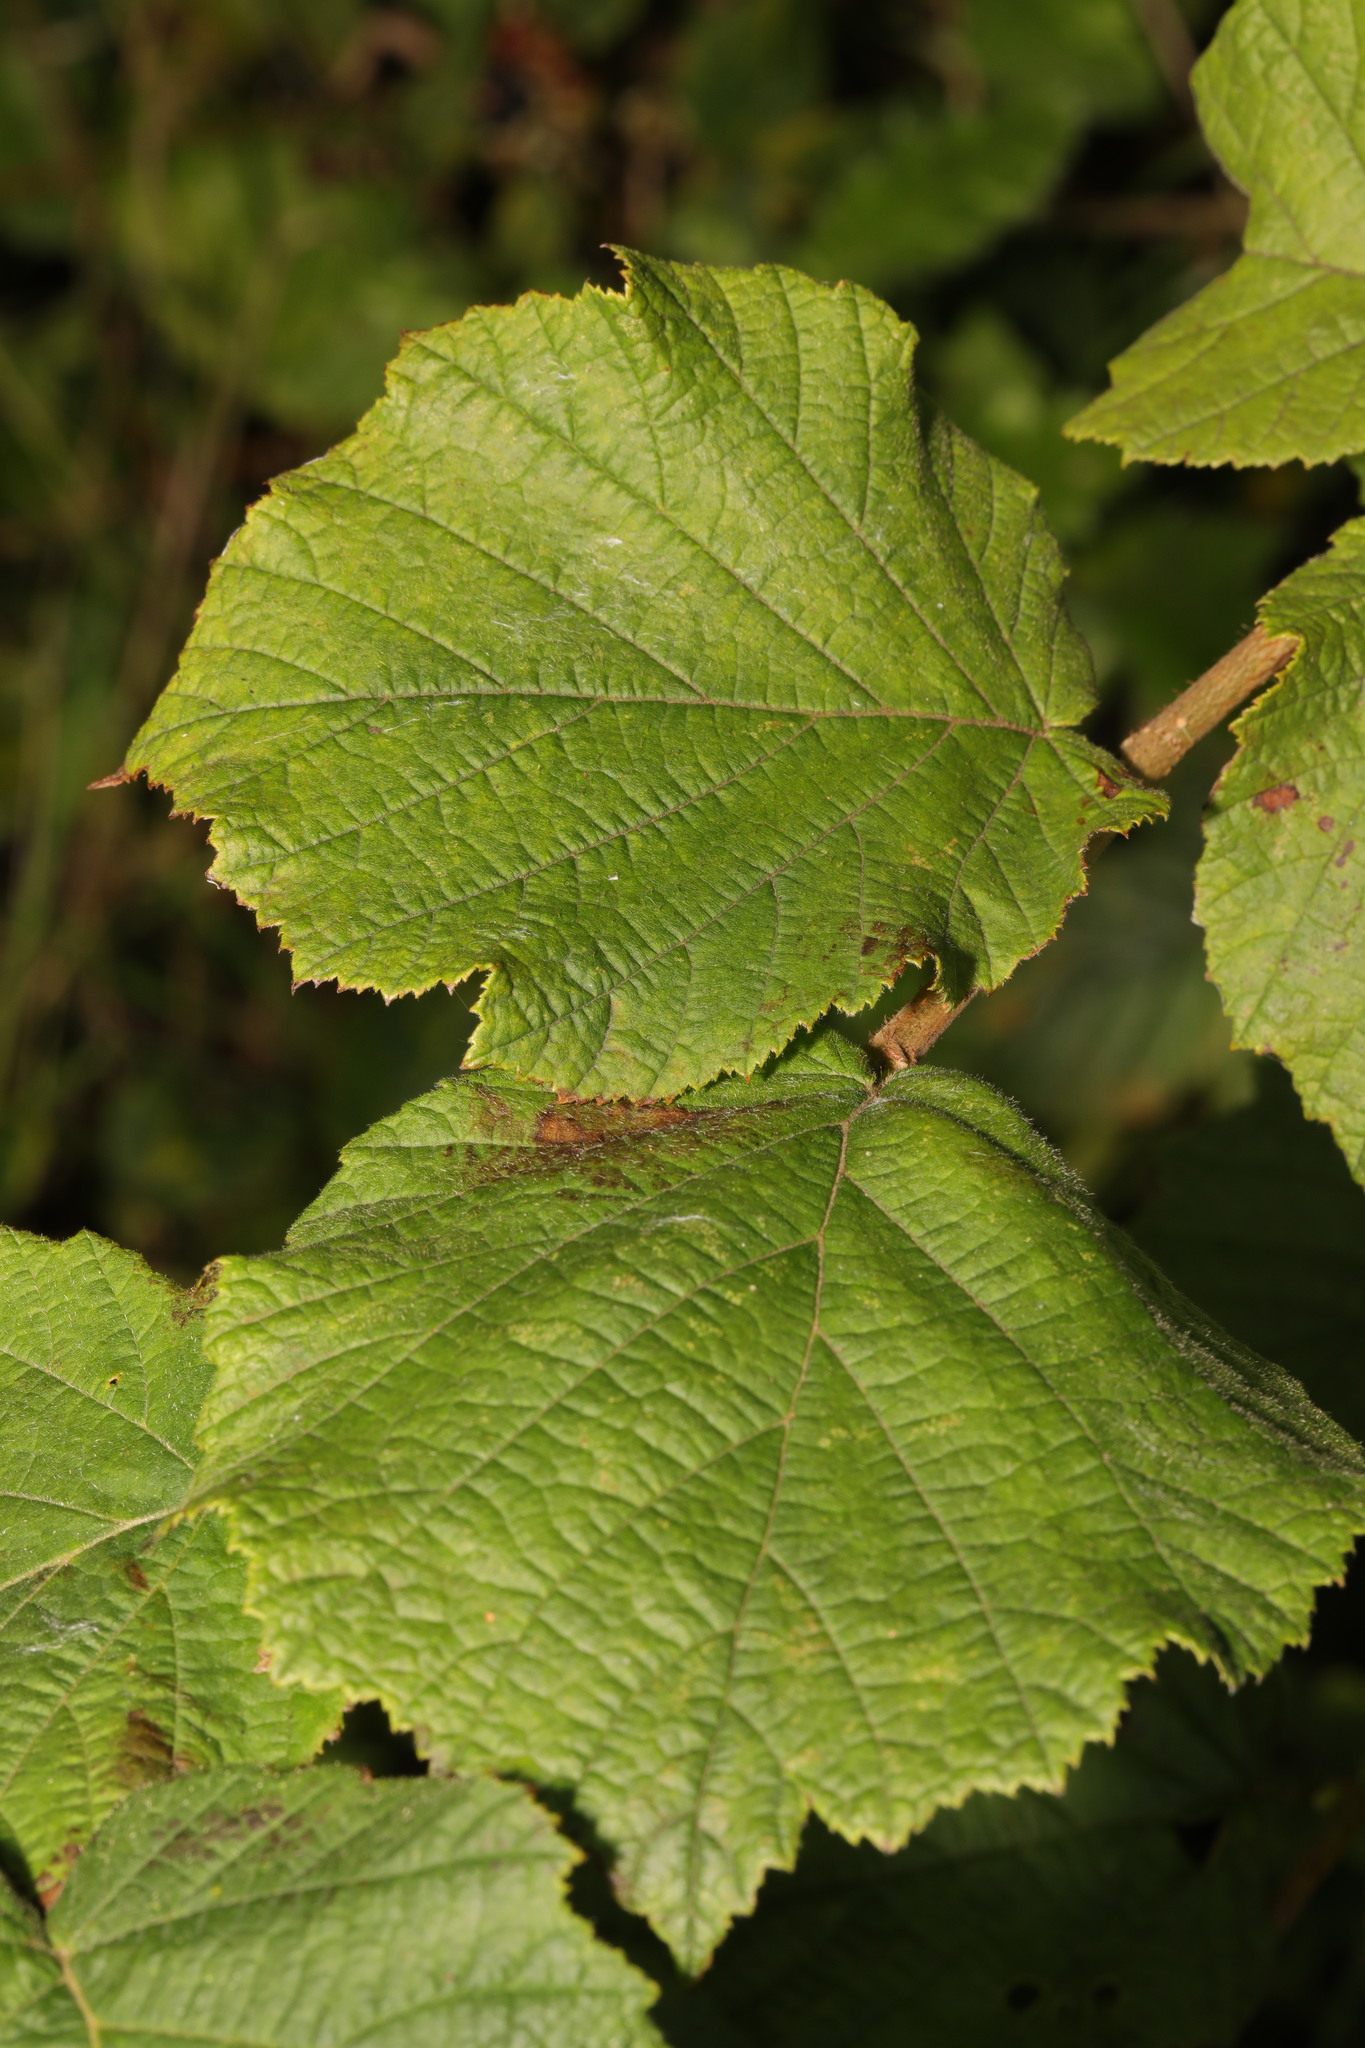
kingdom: Plantae
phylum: Tracheophyta
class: Magnoliopsida
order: Fagales
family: Betulaceae
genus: Corylus
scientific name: Corylus avellana
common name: European hazel
